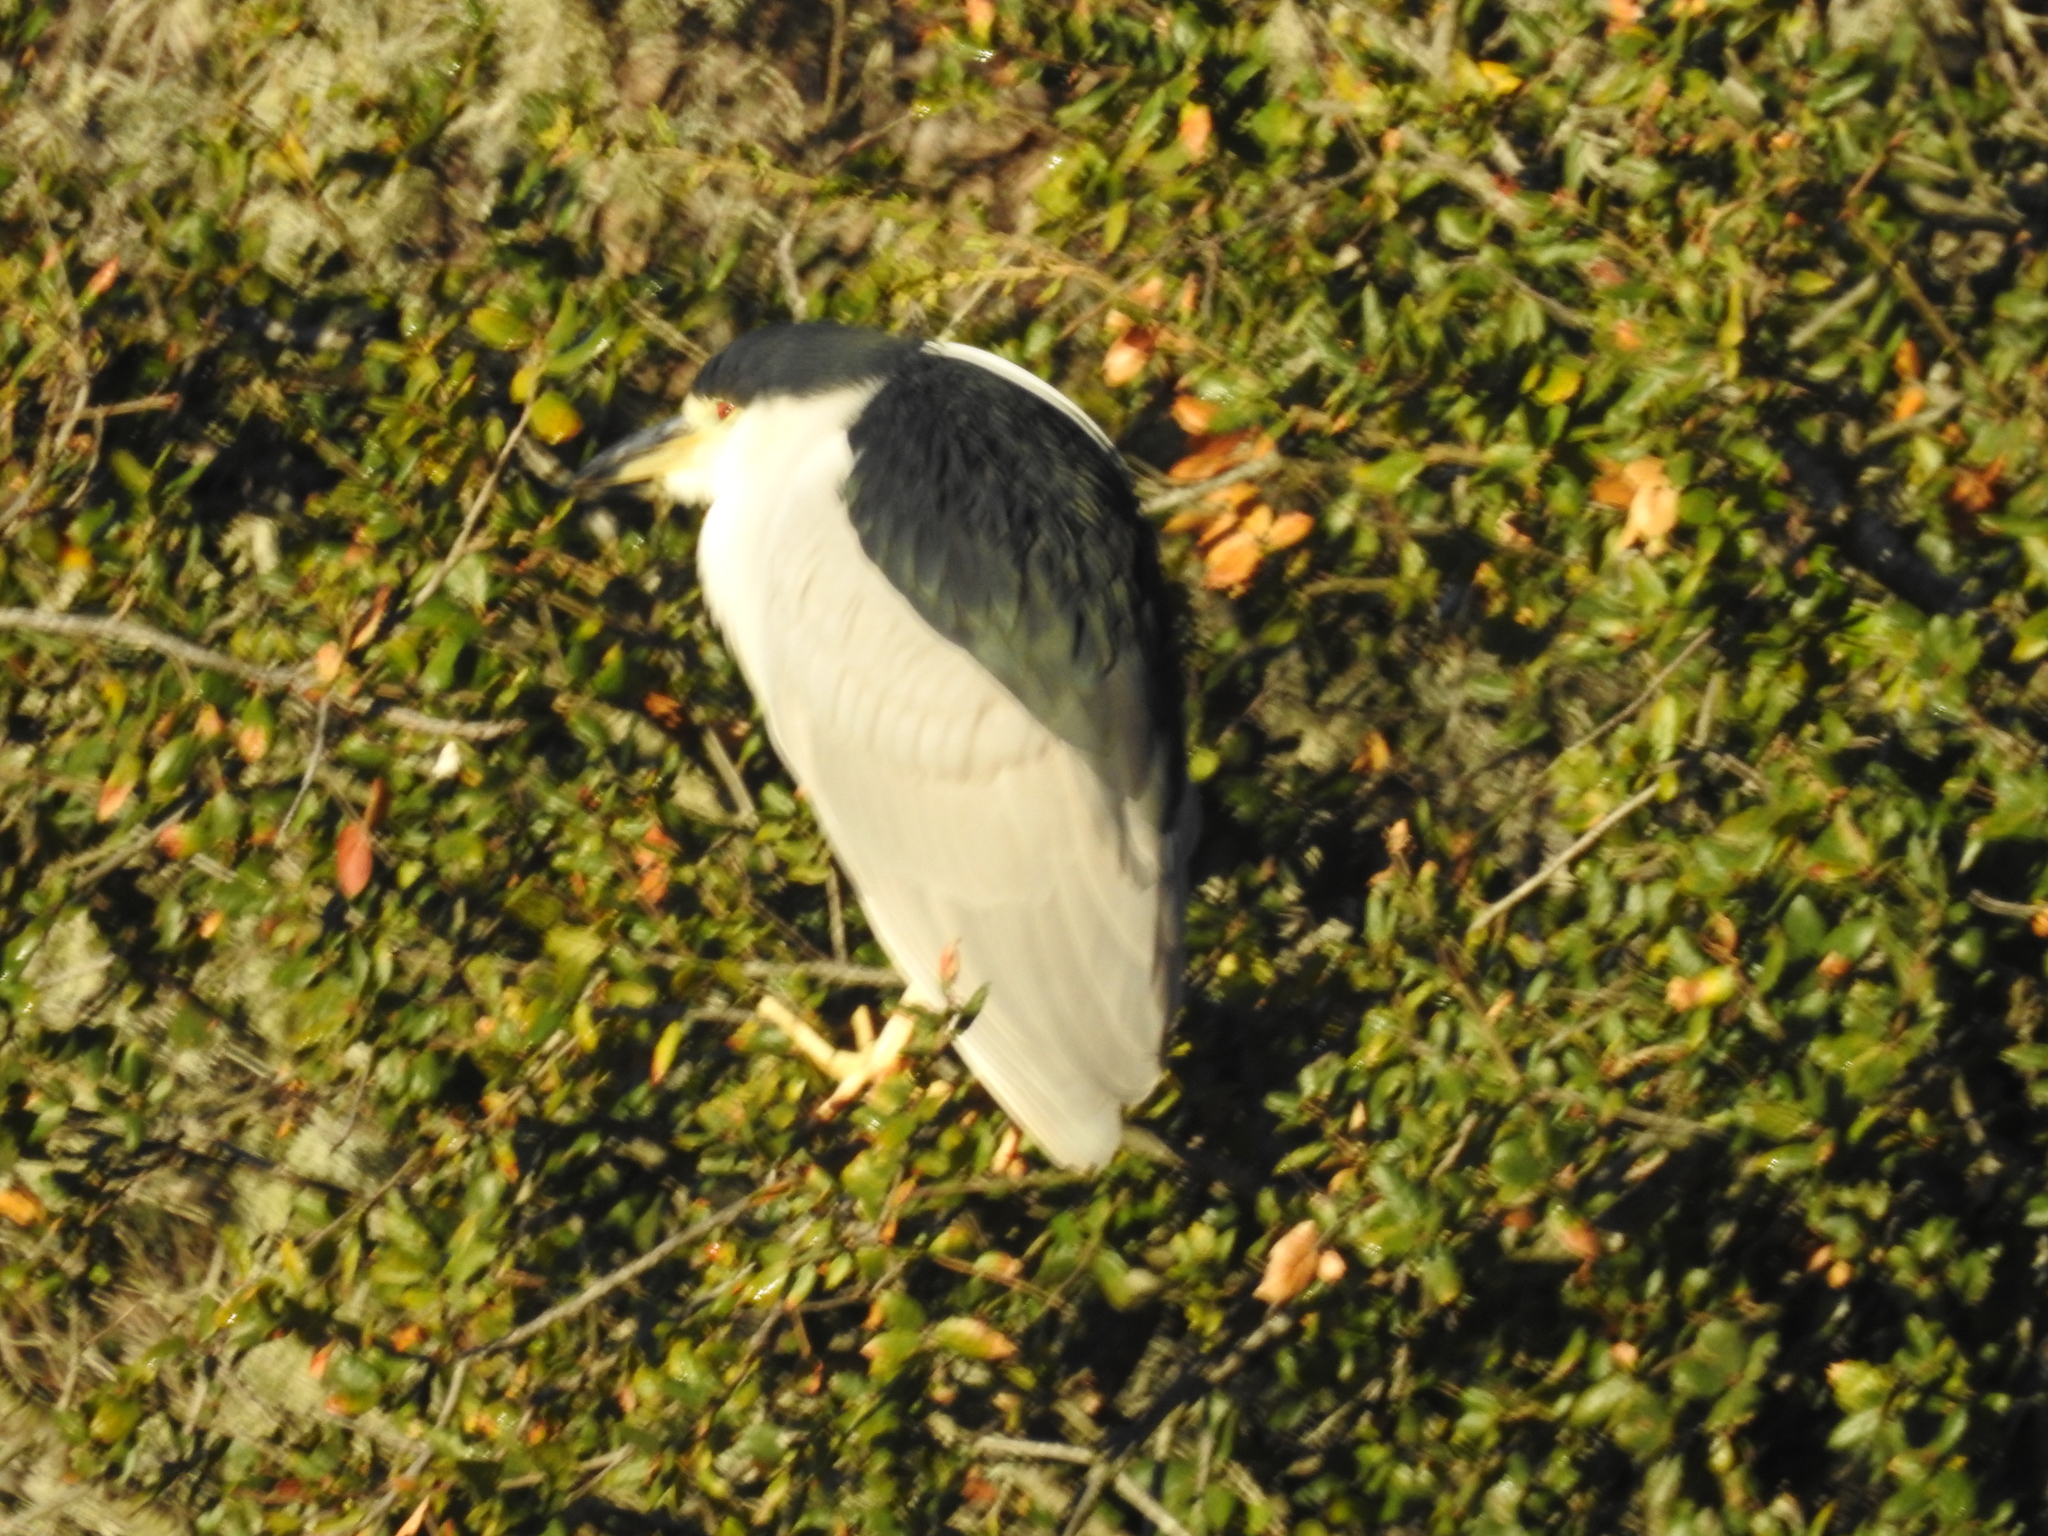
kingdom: Animalia
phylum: Chordata
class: Aves
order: Pelecaniformes
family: Ardeidae
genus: Nycticorax
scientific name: Nycticorax nycticorax
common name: Black-crowned night heron
